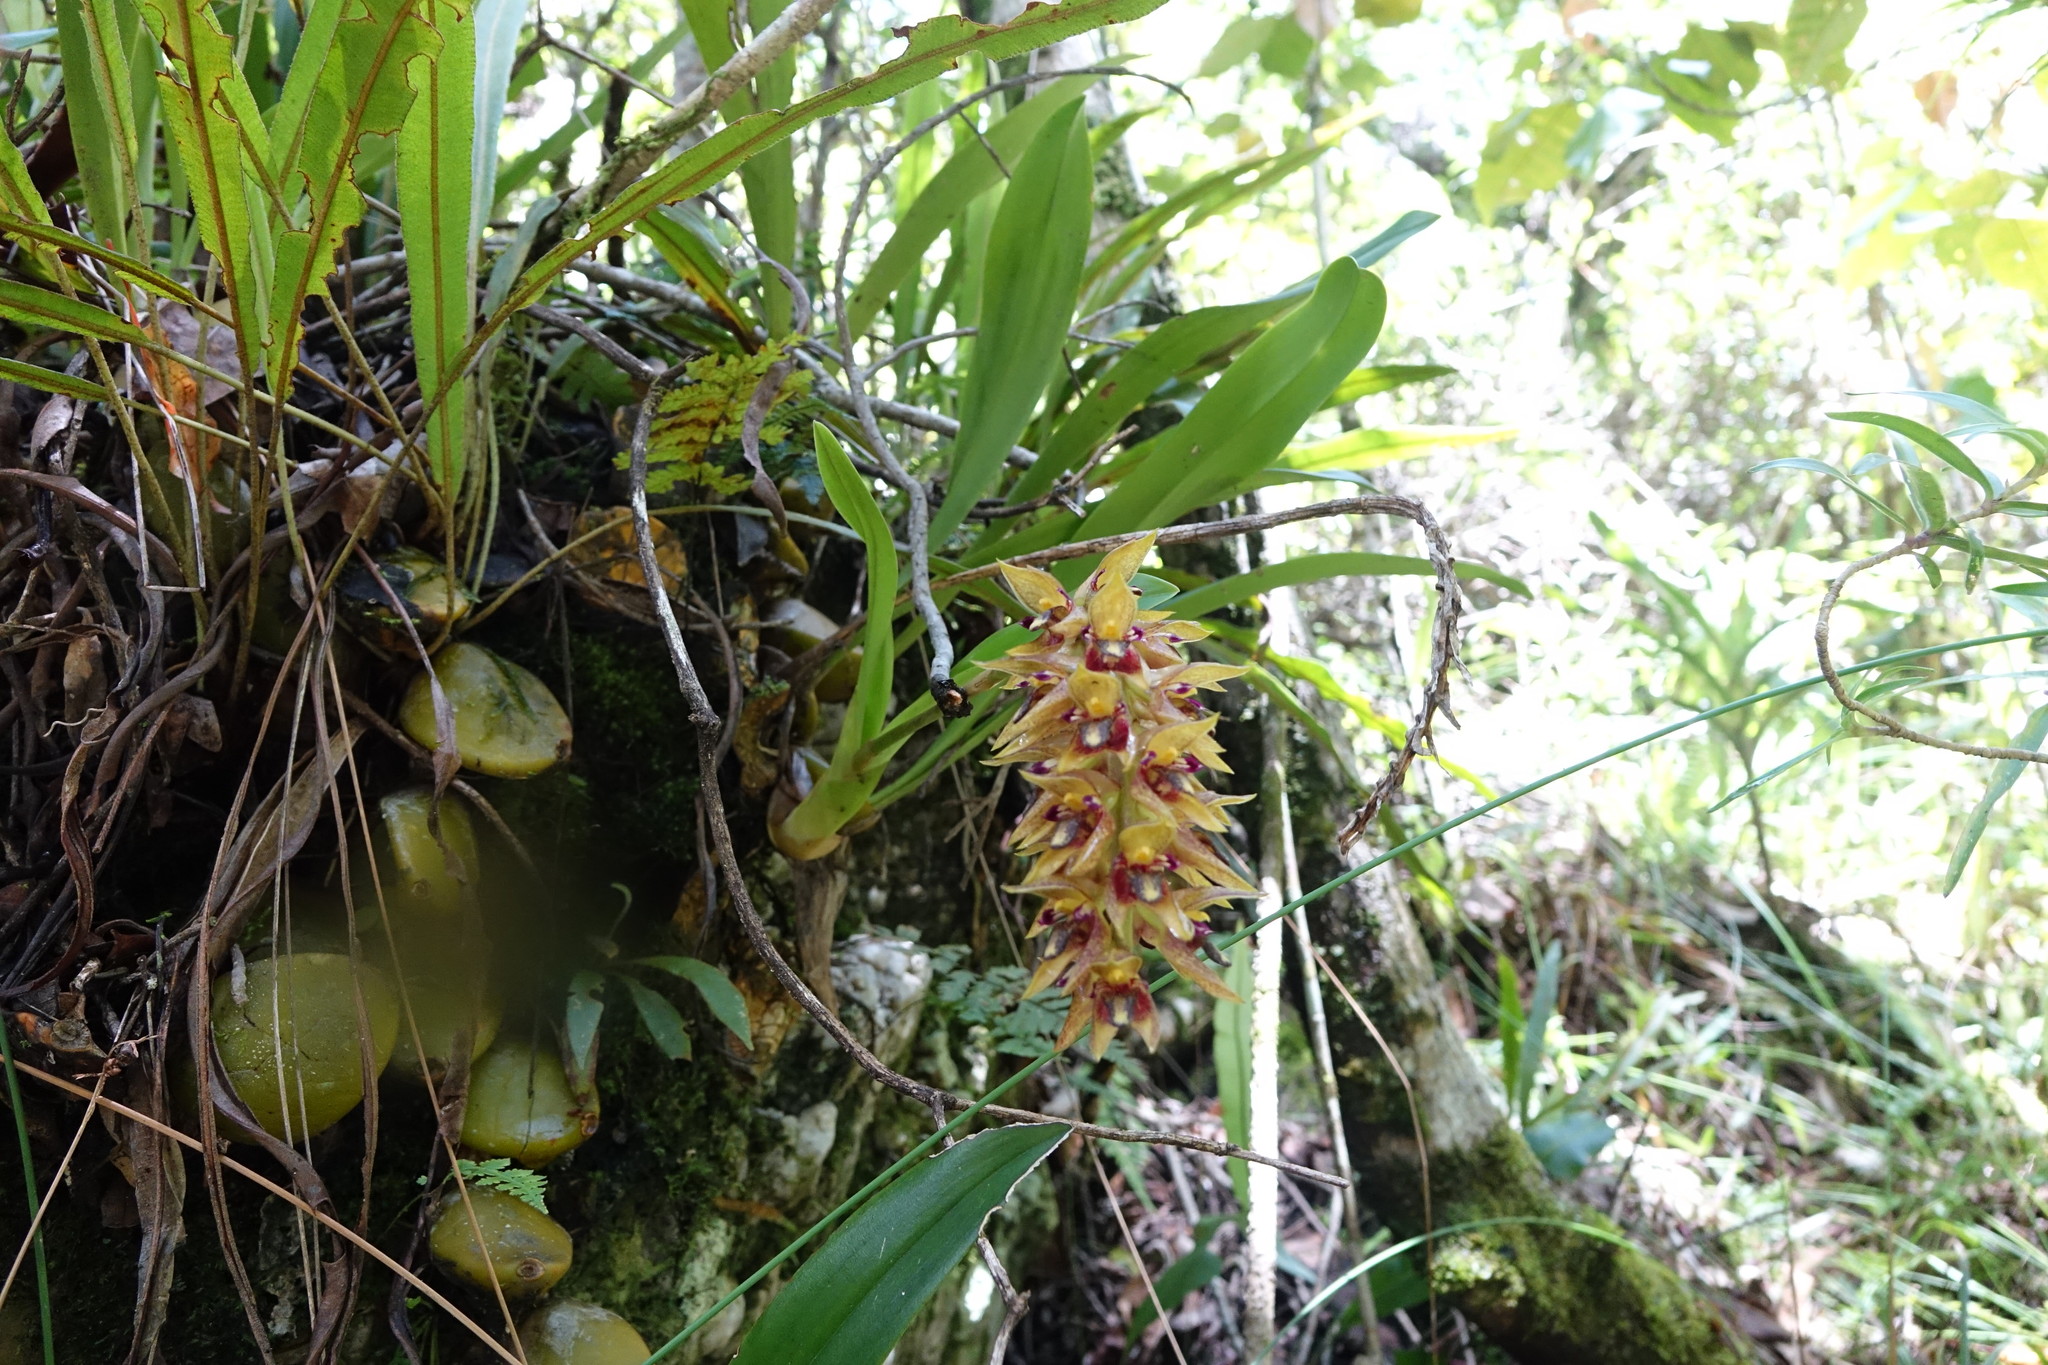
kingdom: Plantae
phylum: Tracheophyta
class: Liliopsida
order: Asparagales
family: Orchidaceae
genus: Bulbophyllum
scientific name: Bulbophyllum occlusum
